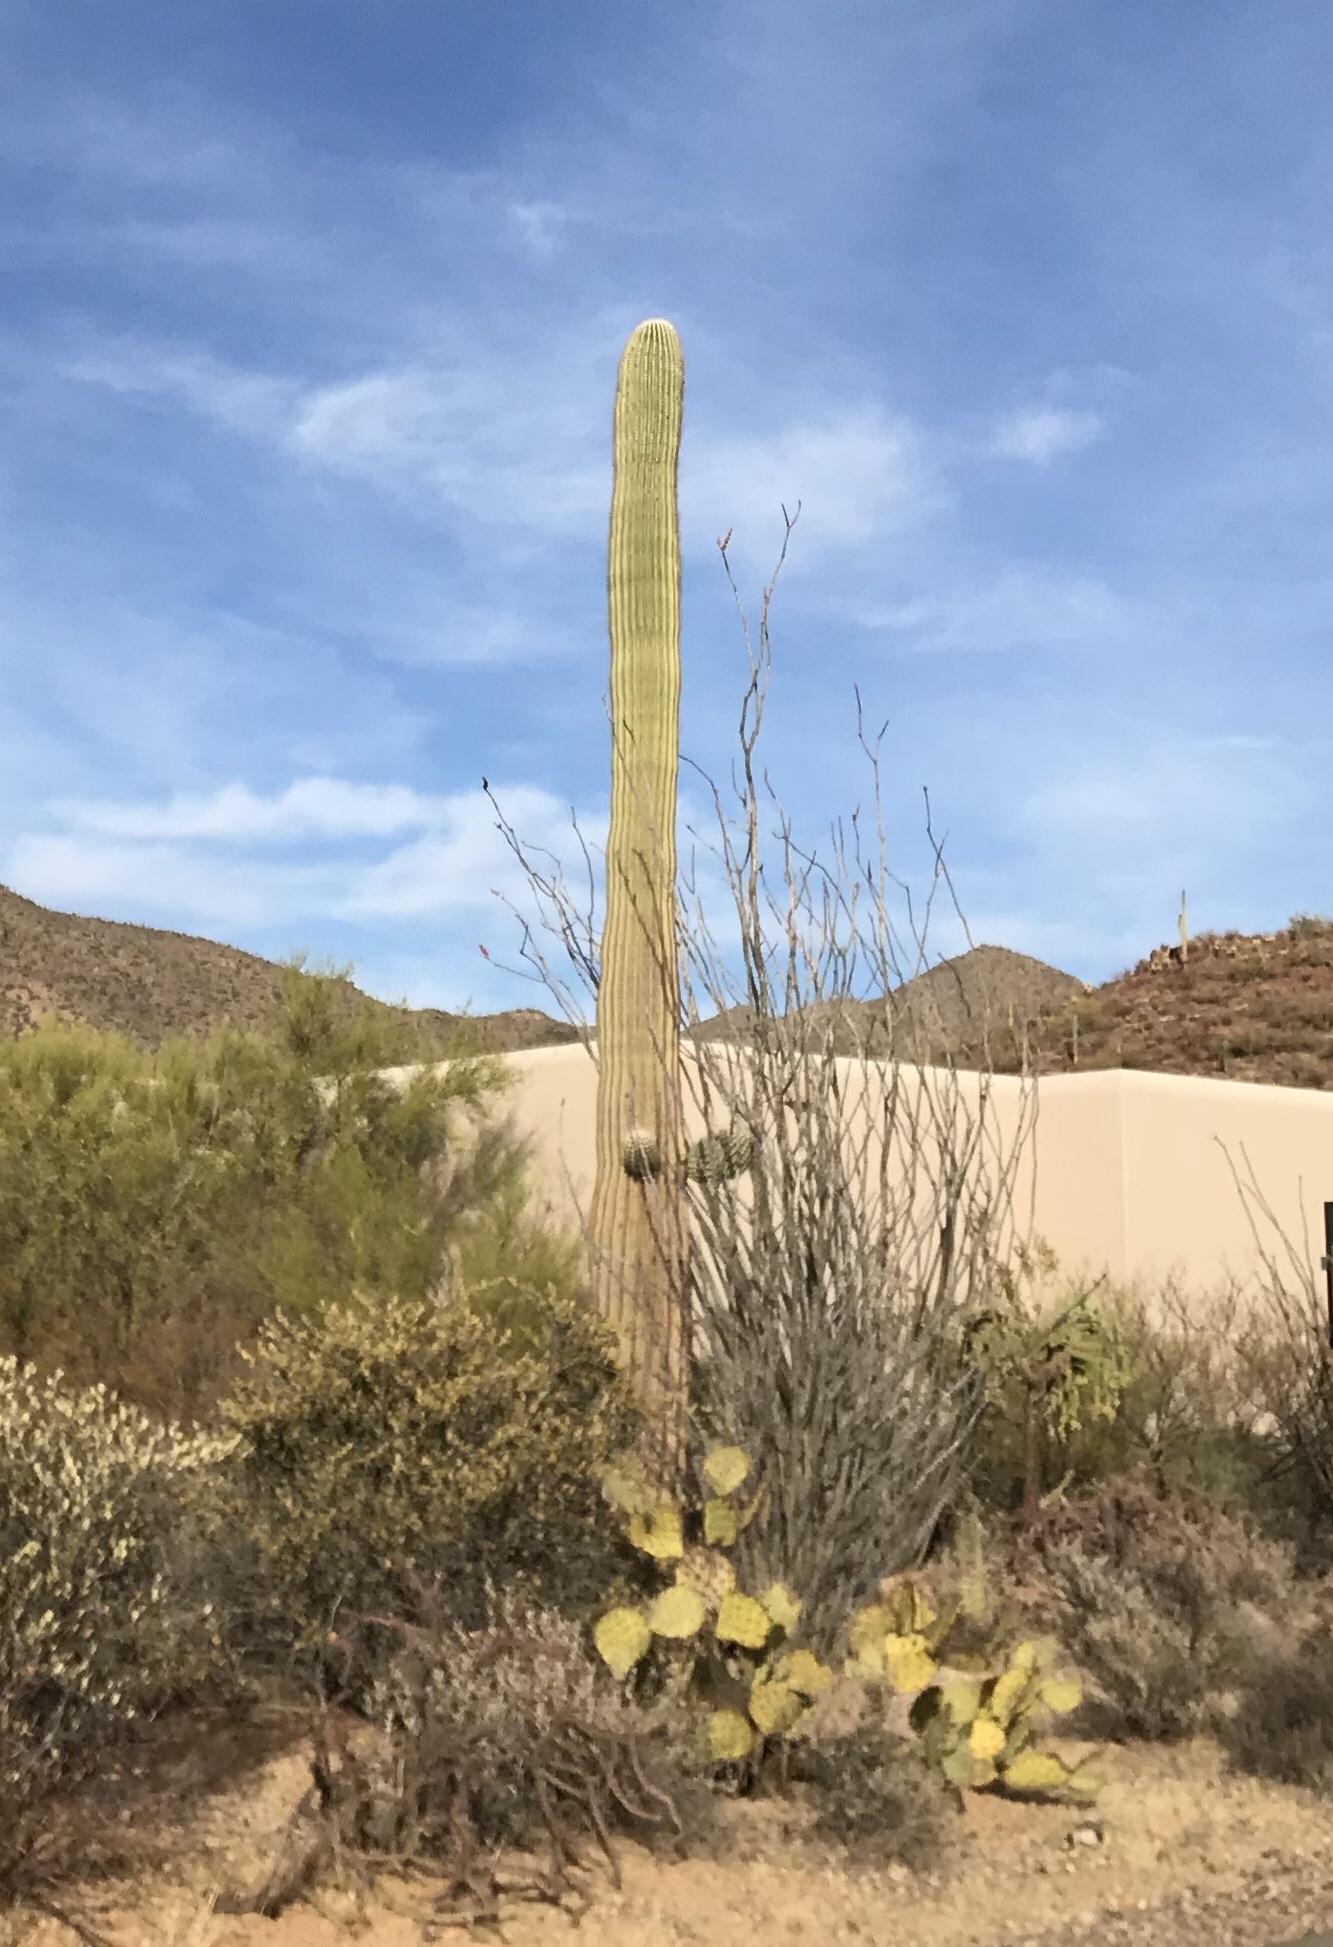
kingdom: Plantae
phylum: Tracheophyta
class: Magnoliopsida
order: Caryophyllales
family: Cactaceae
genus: Carnegiea
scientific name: Carnegiea gigantea
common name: Saguaro
